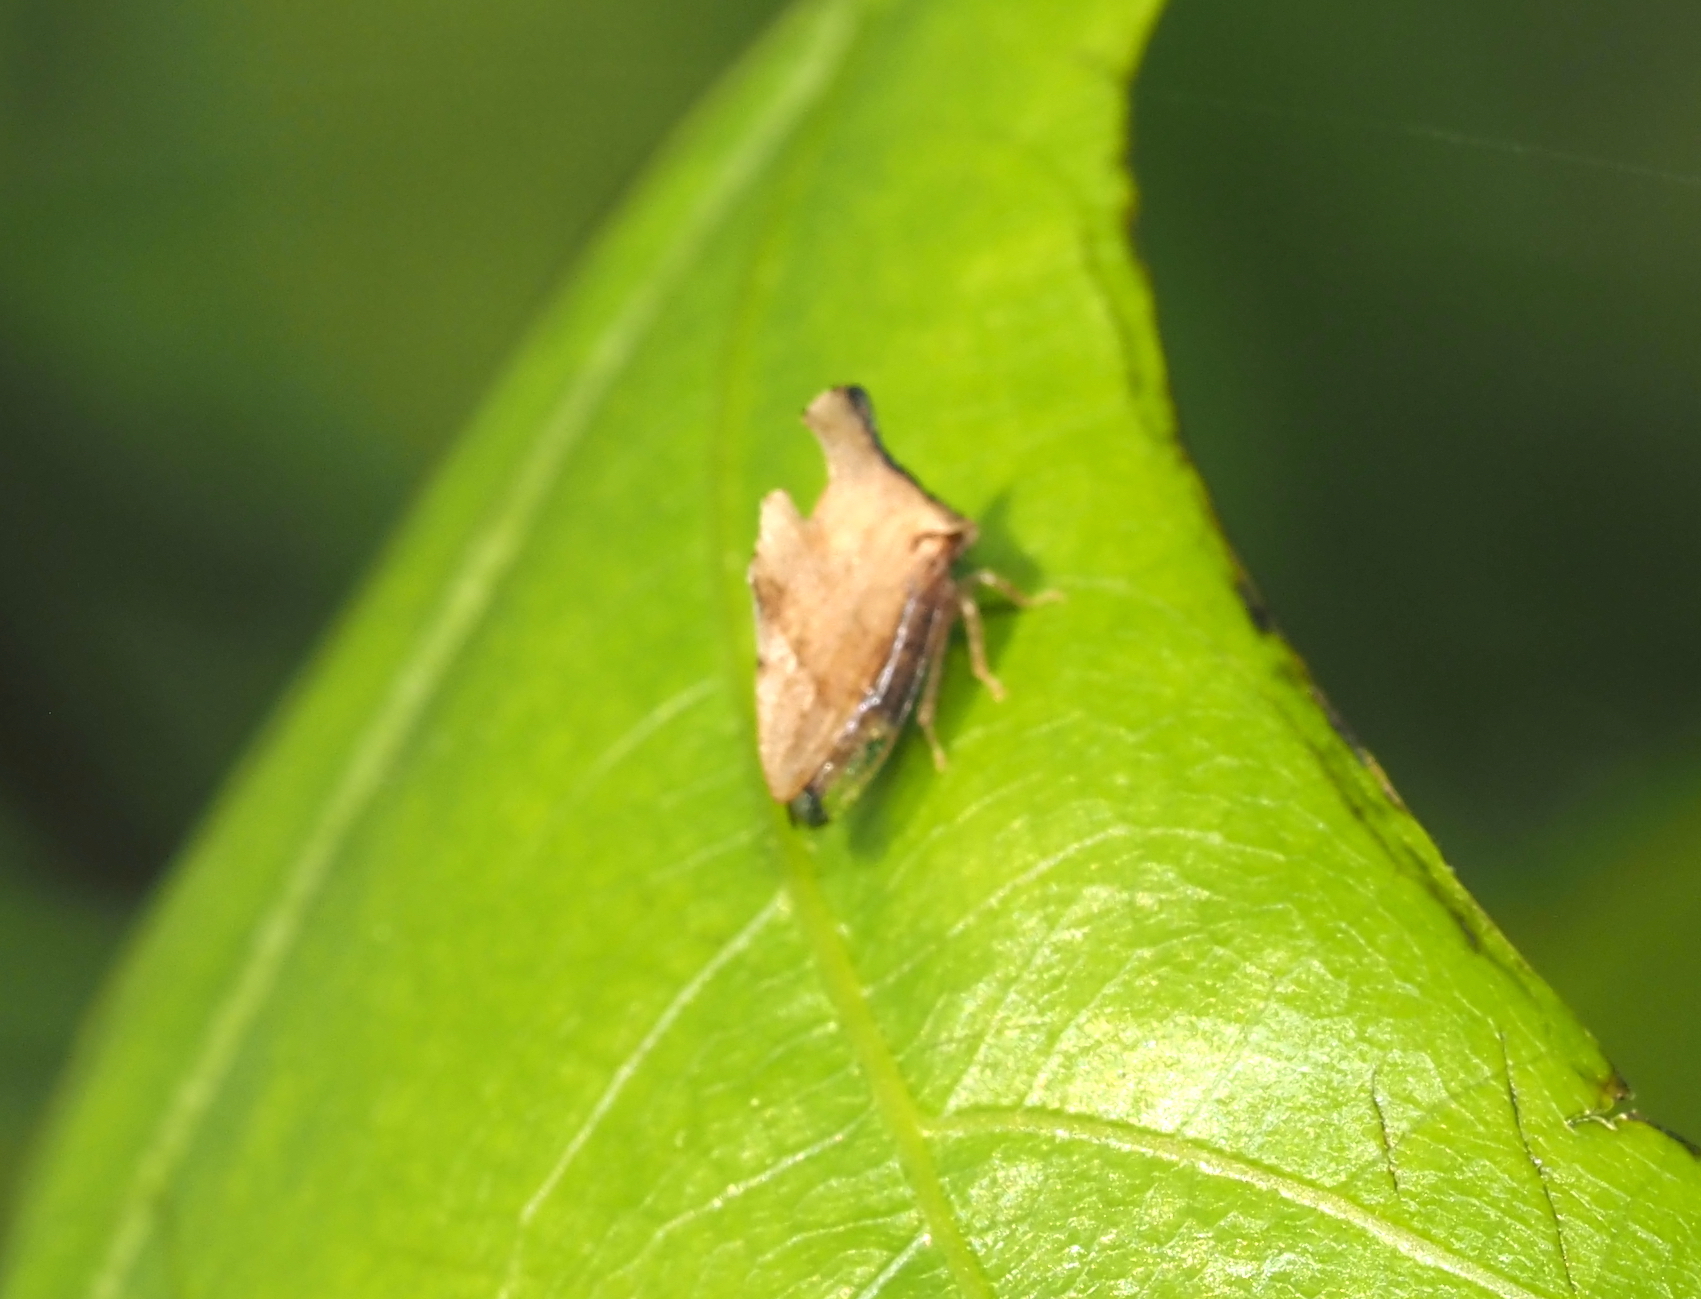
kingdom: Animalia
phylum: Arthropoda
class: Insecta
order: Hemiptera
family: Membracidae
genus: Entylia
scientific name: Entylia carinata
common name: Keeled treehopper
